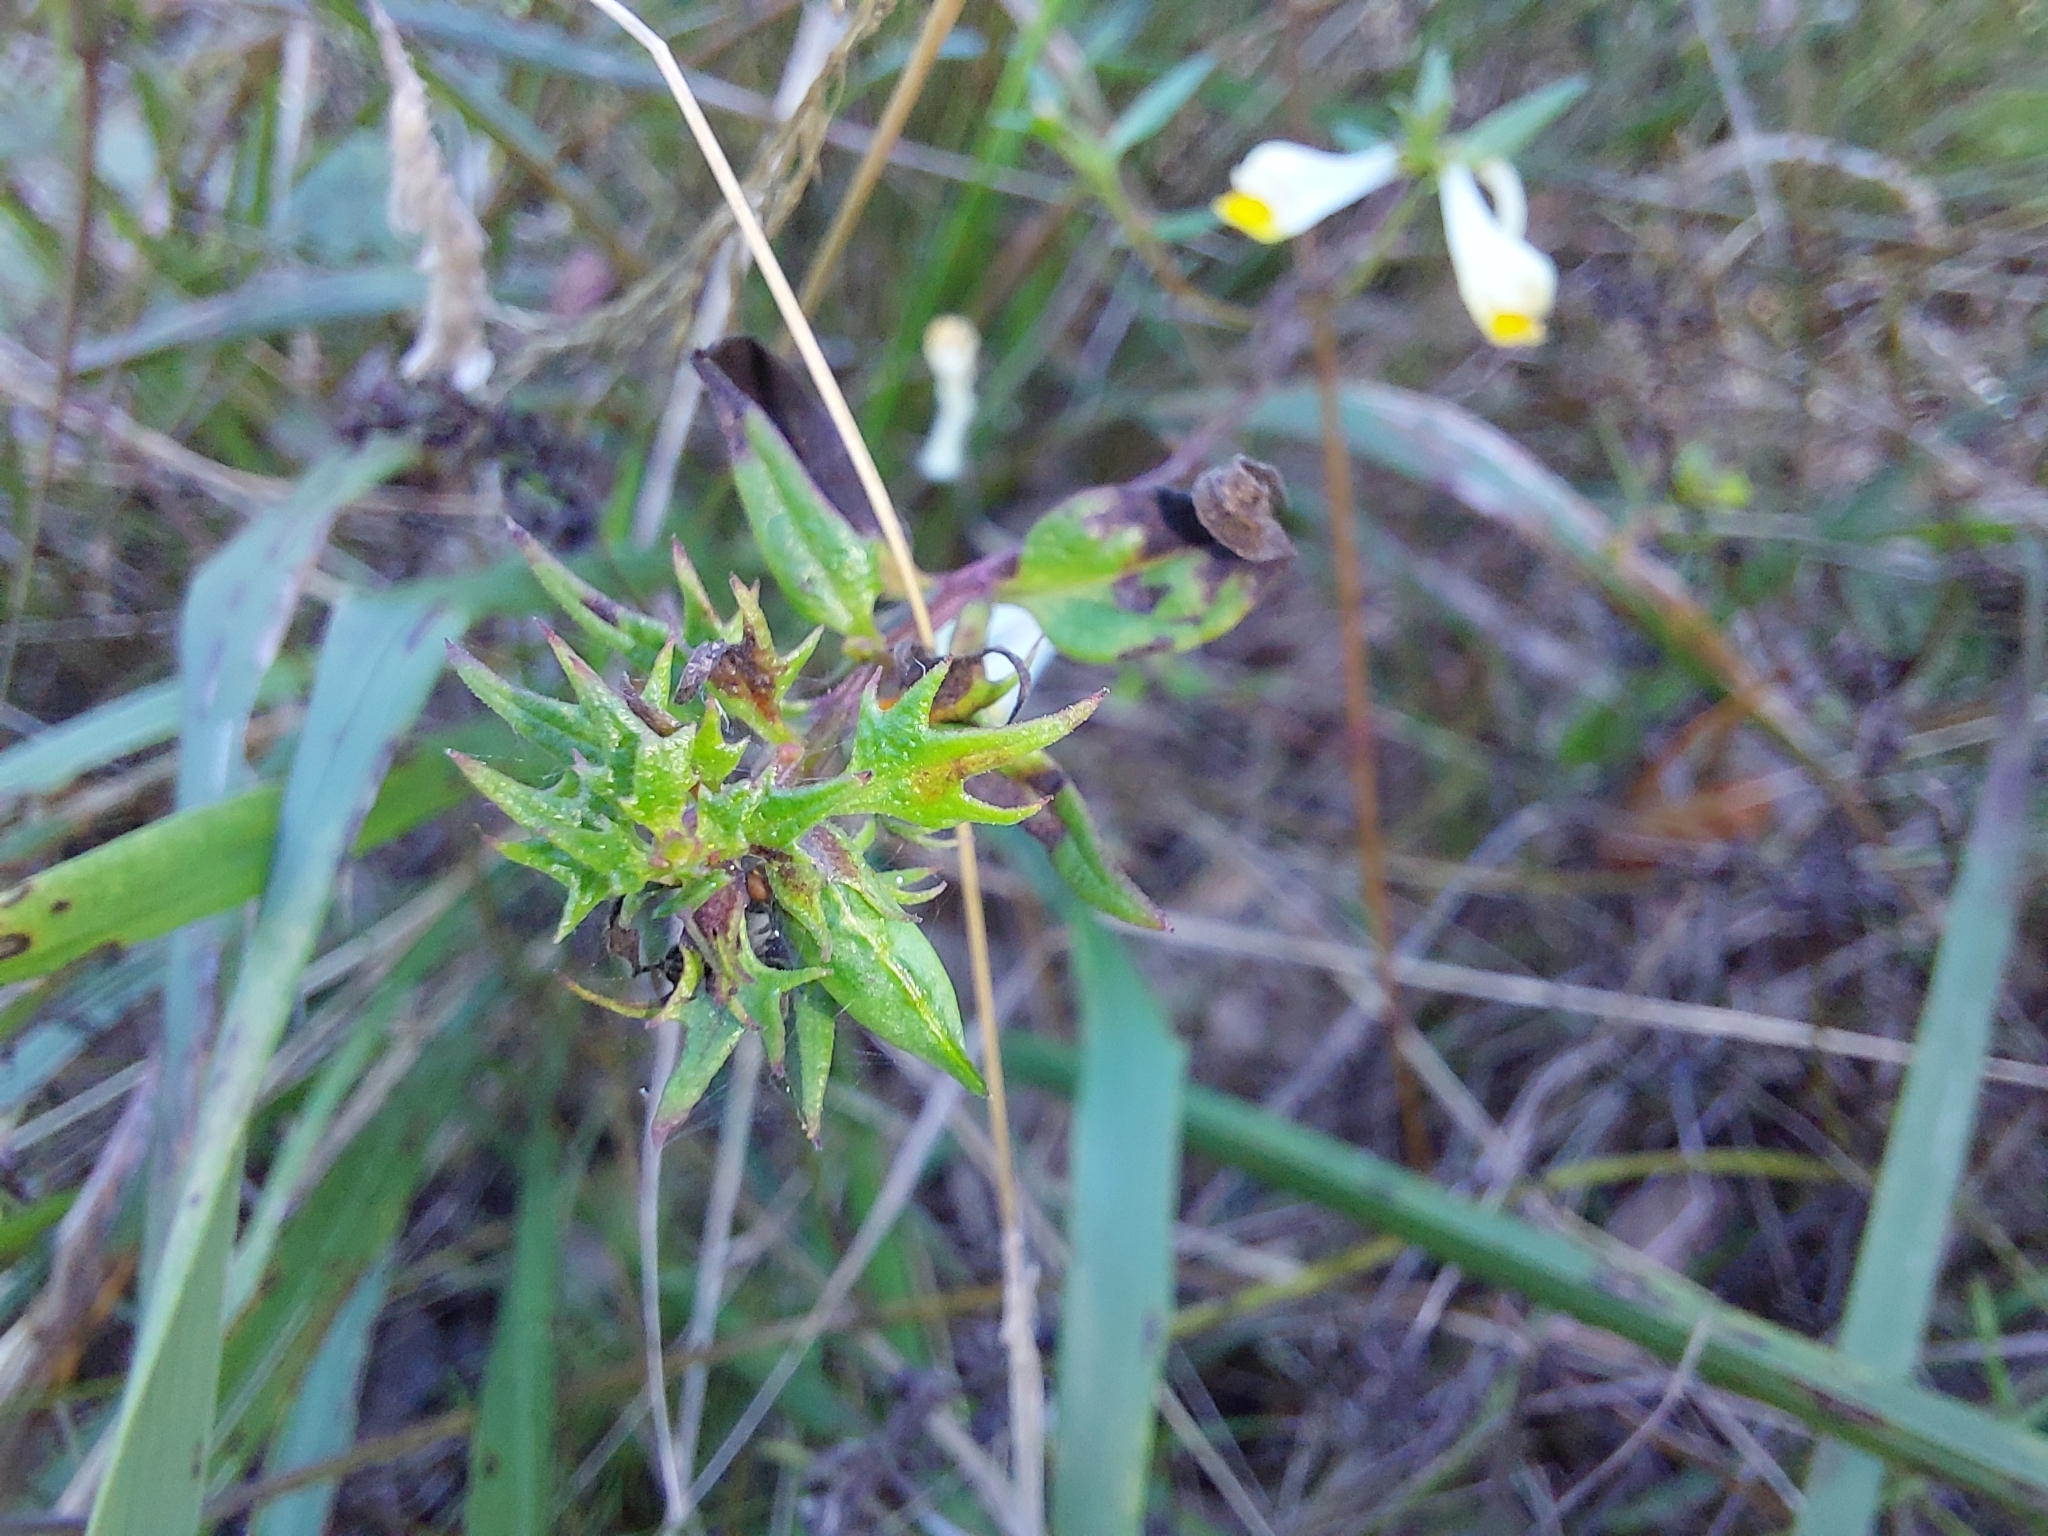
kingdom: Plantae
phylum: Tracheophyta
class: Magnoliopsida
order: Lamiales
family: Orobanchaceae
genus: Melampyrum
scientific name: Melampyrum pratense
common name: Common cow-wheat
